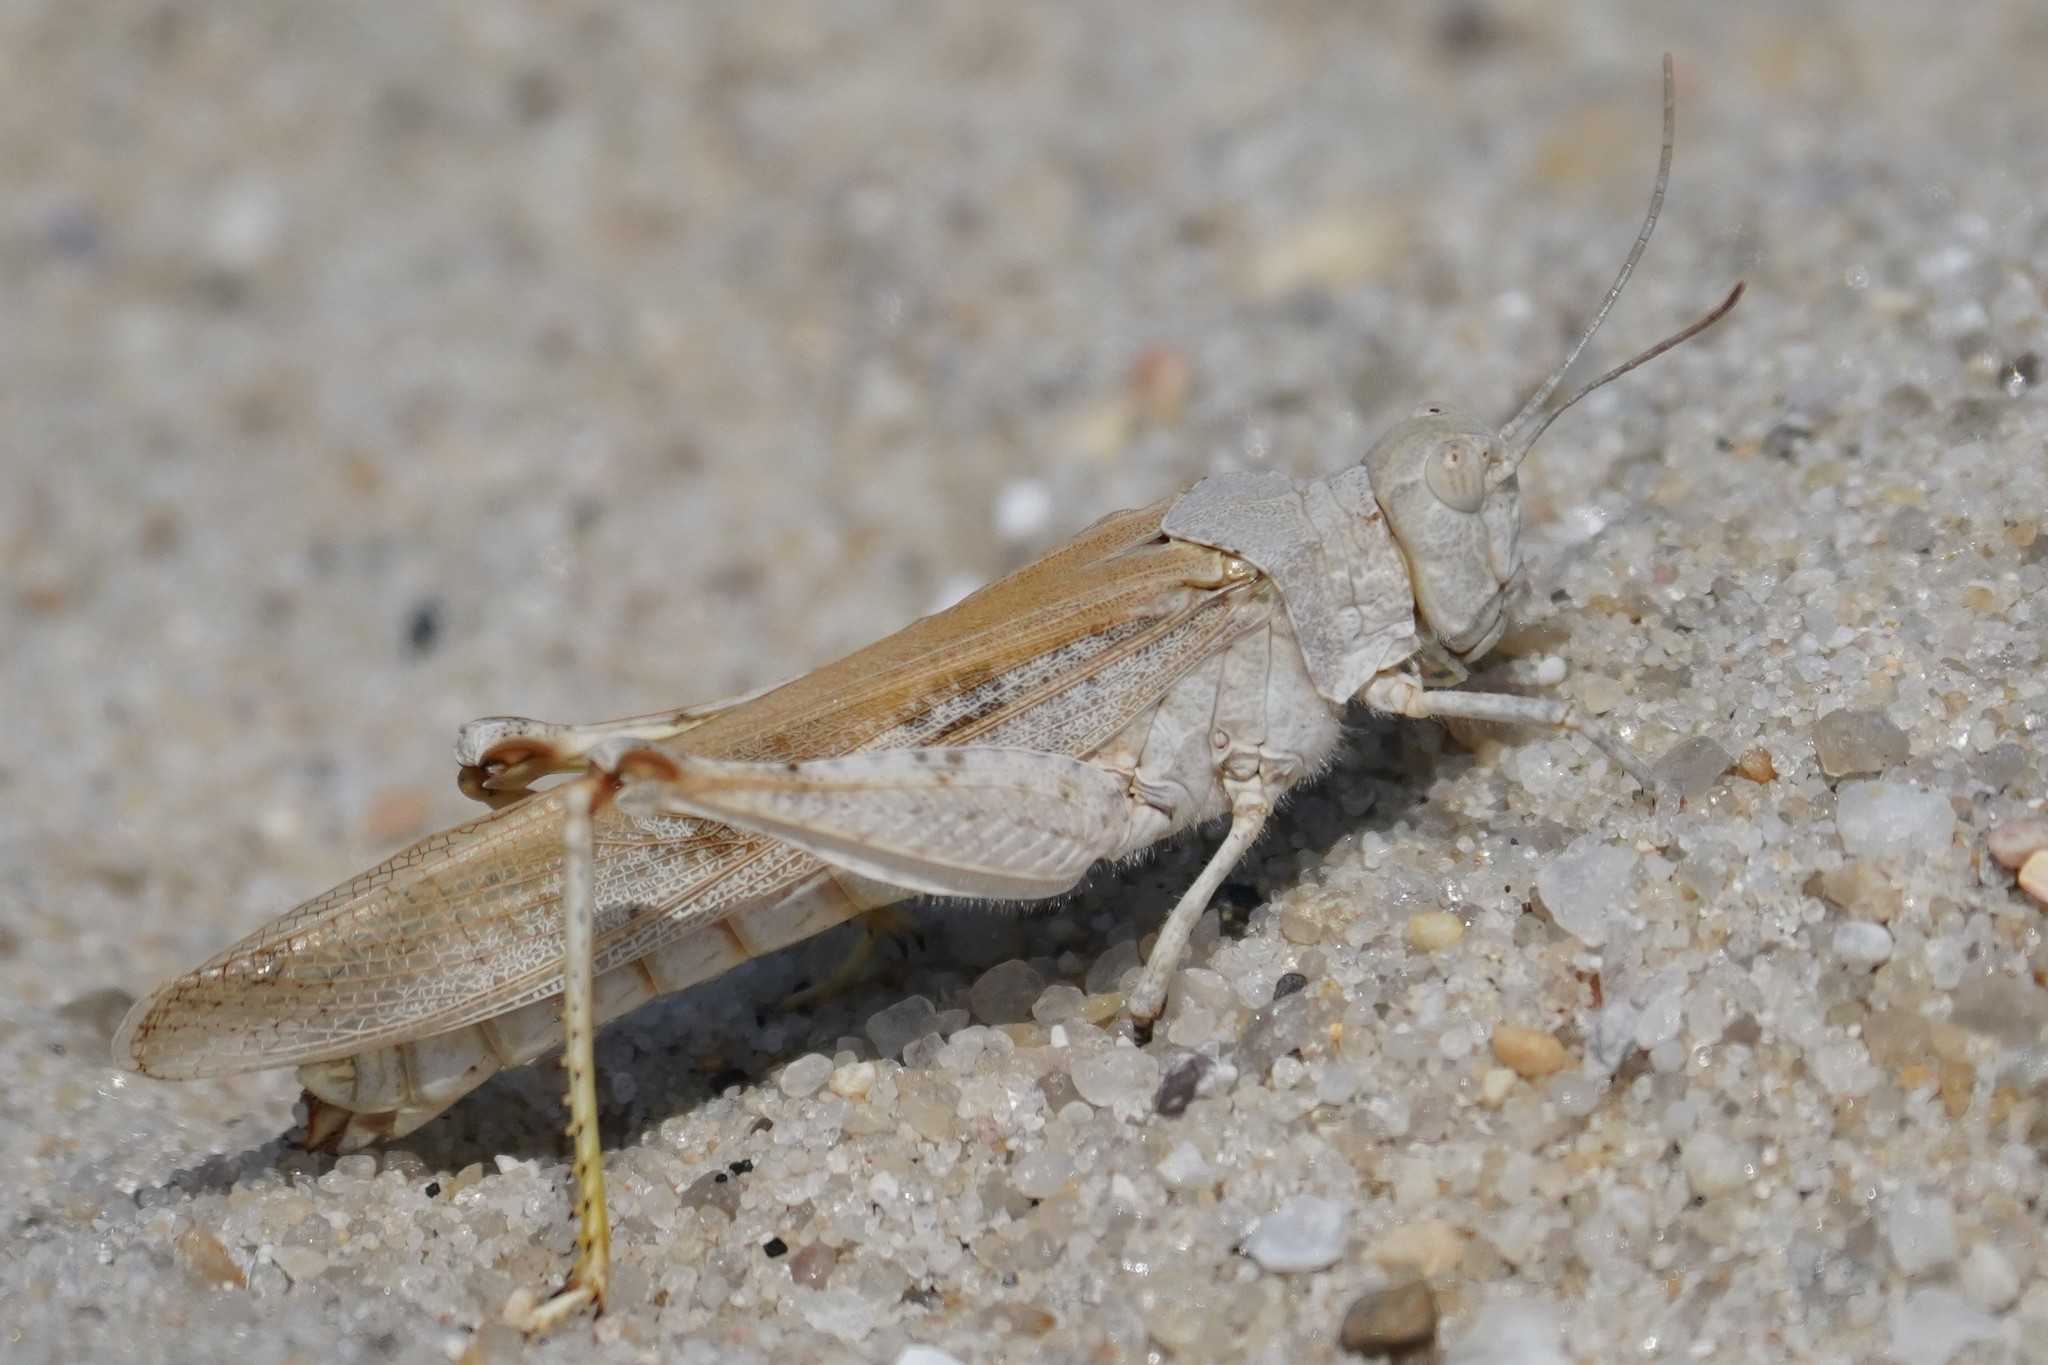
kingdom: Animalia
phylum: Arthropoda
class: Insecta
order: Orthoptera
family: Acrididae
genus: Trimerotropis
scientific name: Trimerotropis maritima
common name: Seaside locust
